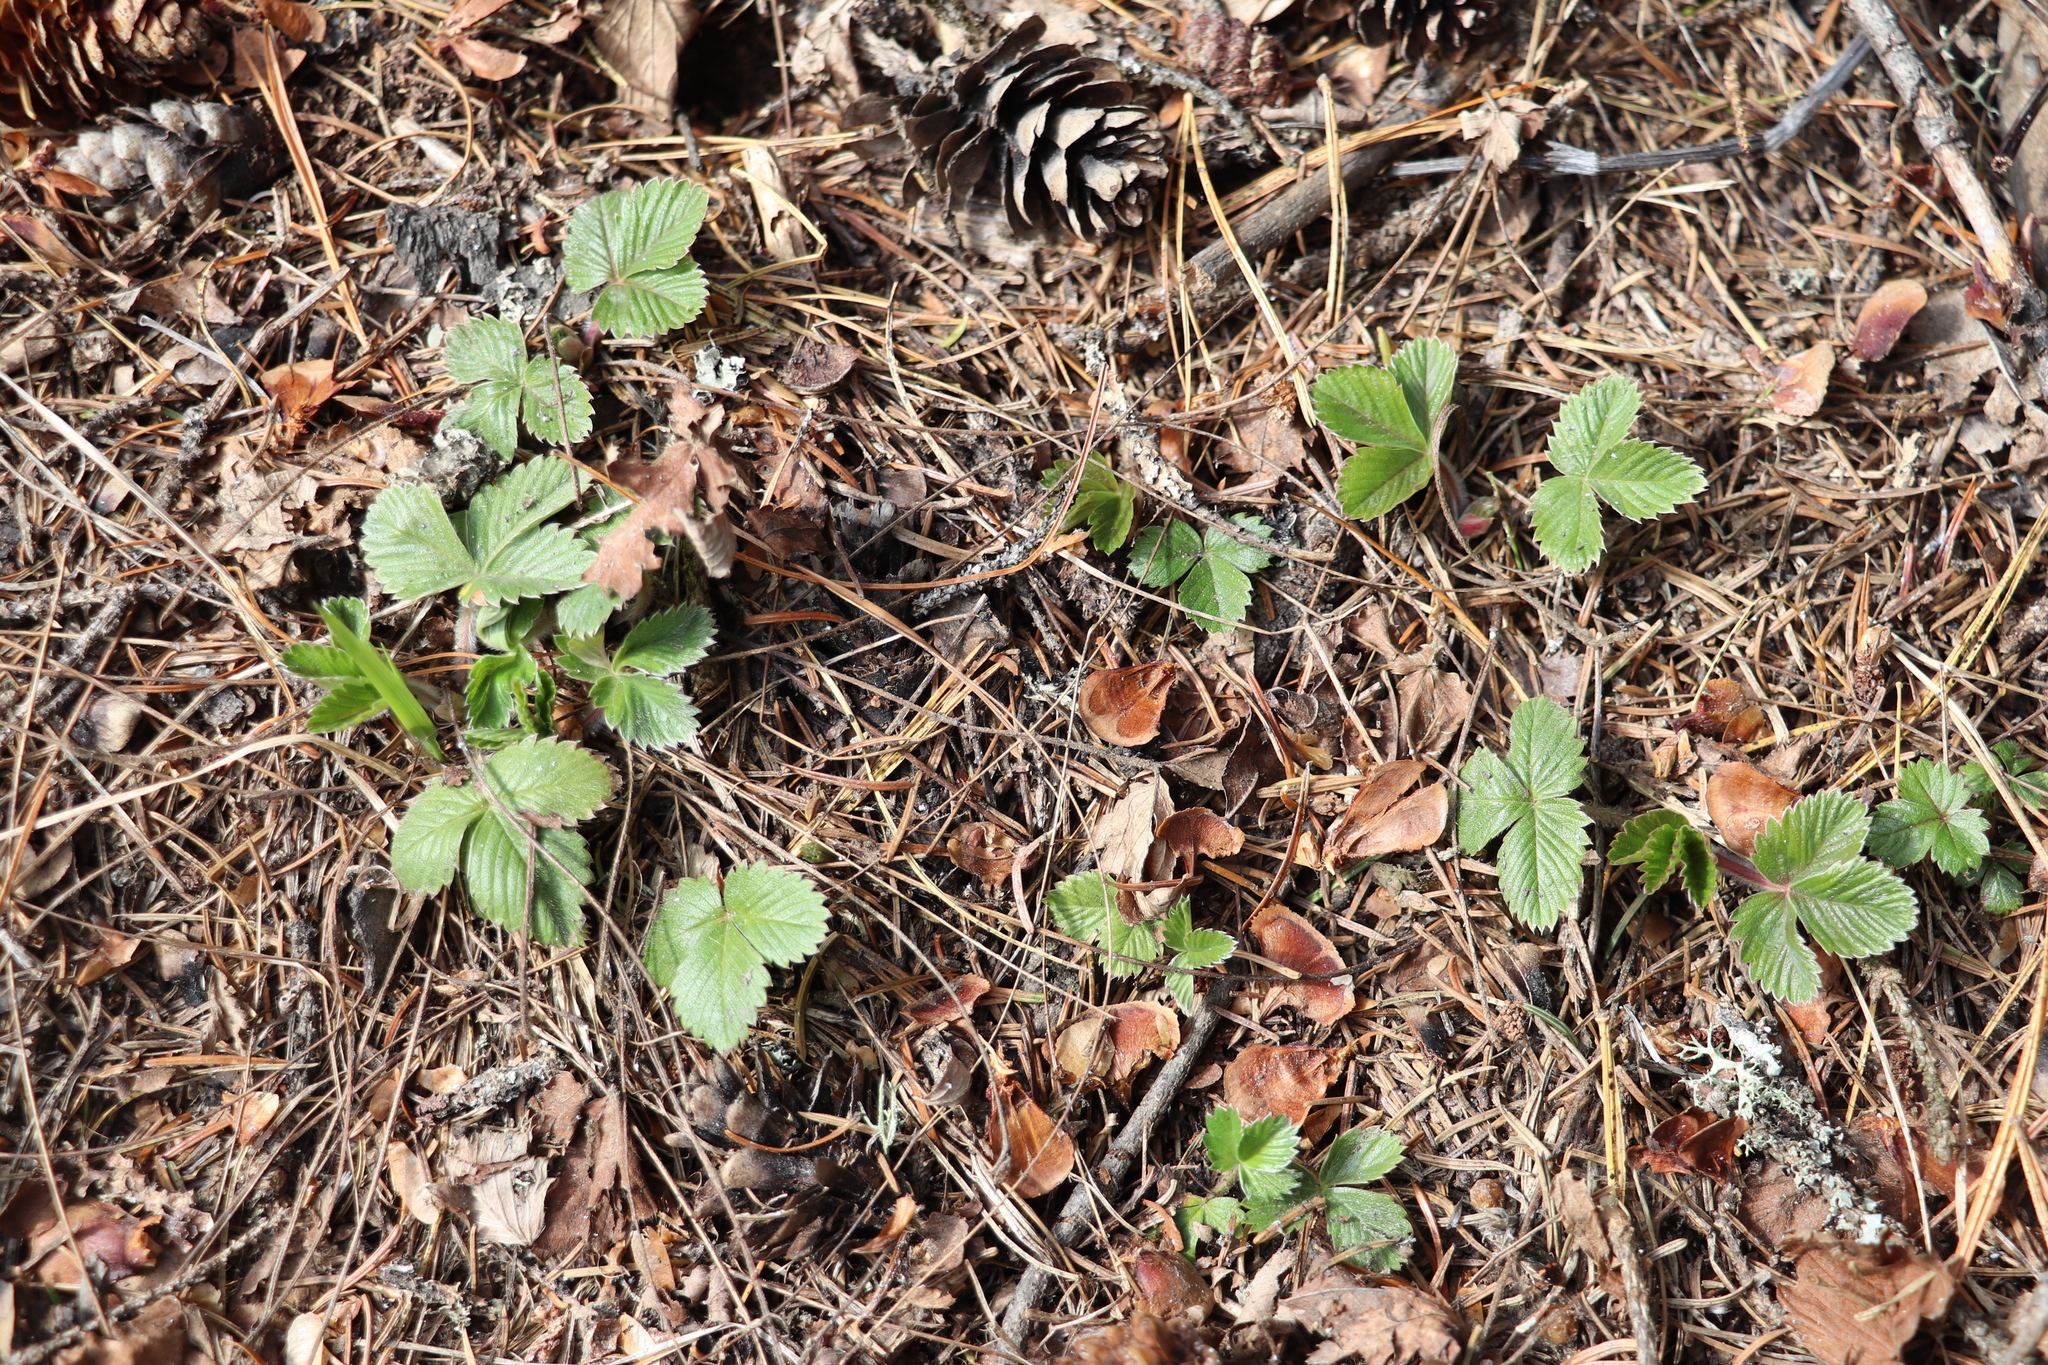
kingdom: Plantae
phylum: Tracheophyta
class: Magnoliopsida
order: Rosales
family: Rosaceae
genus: Fragaria
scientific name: Fragaria vesca
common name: Wild strawberry
